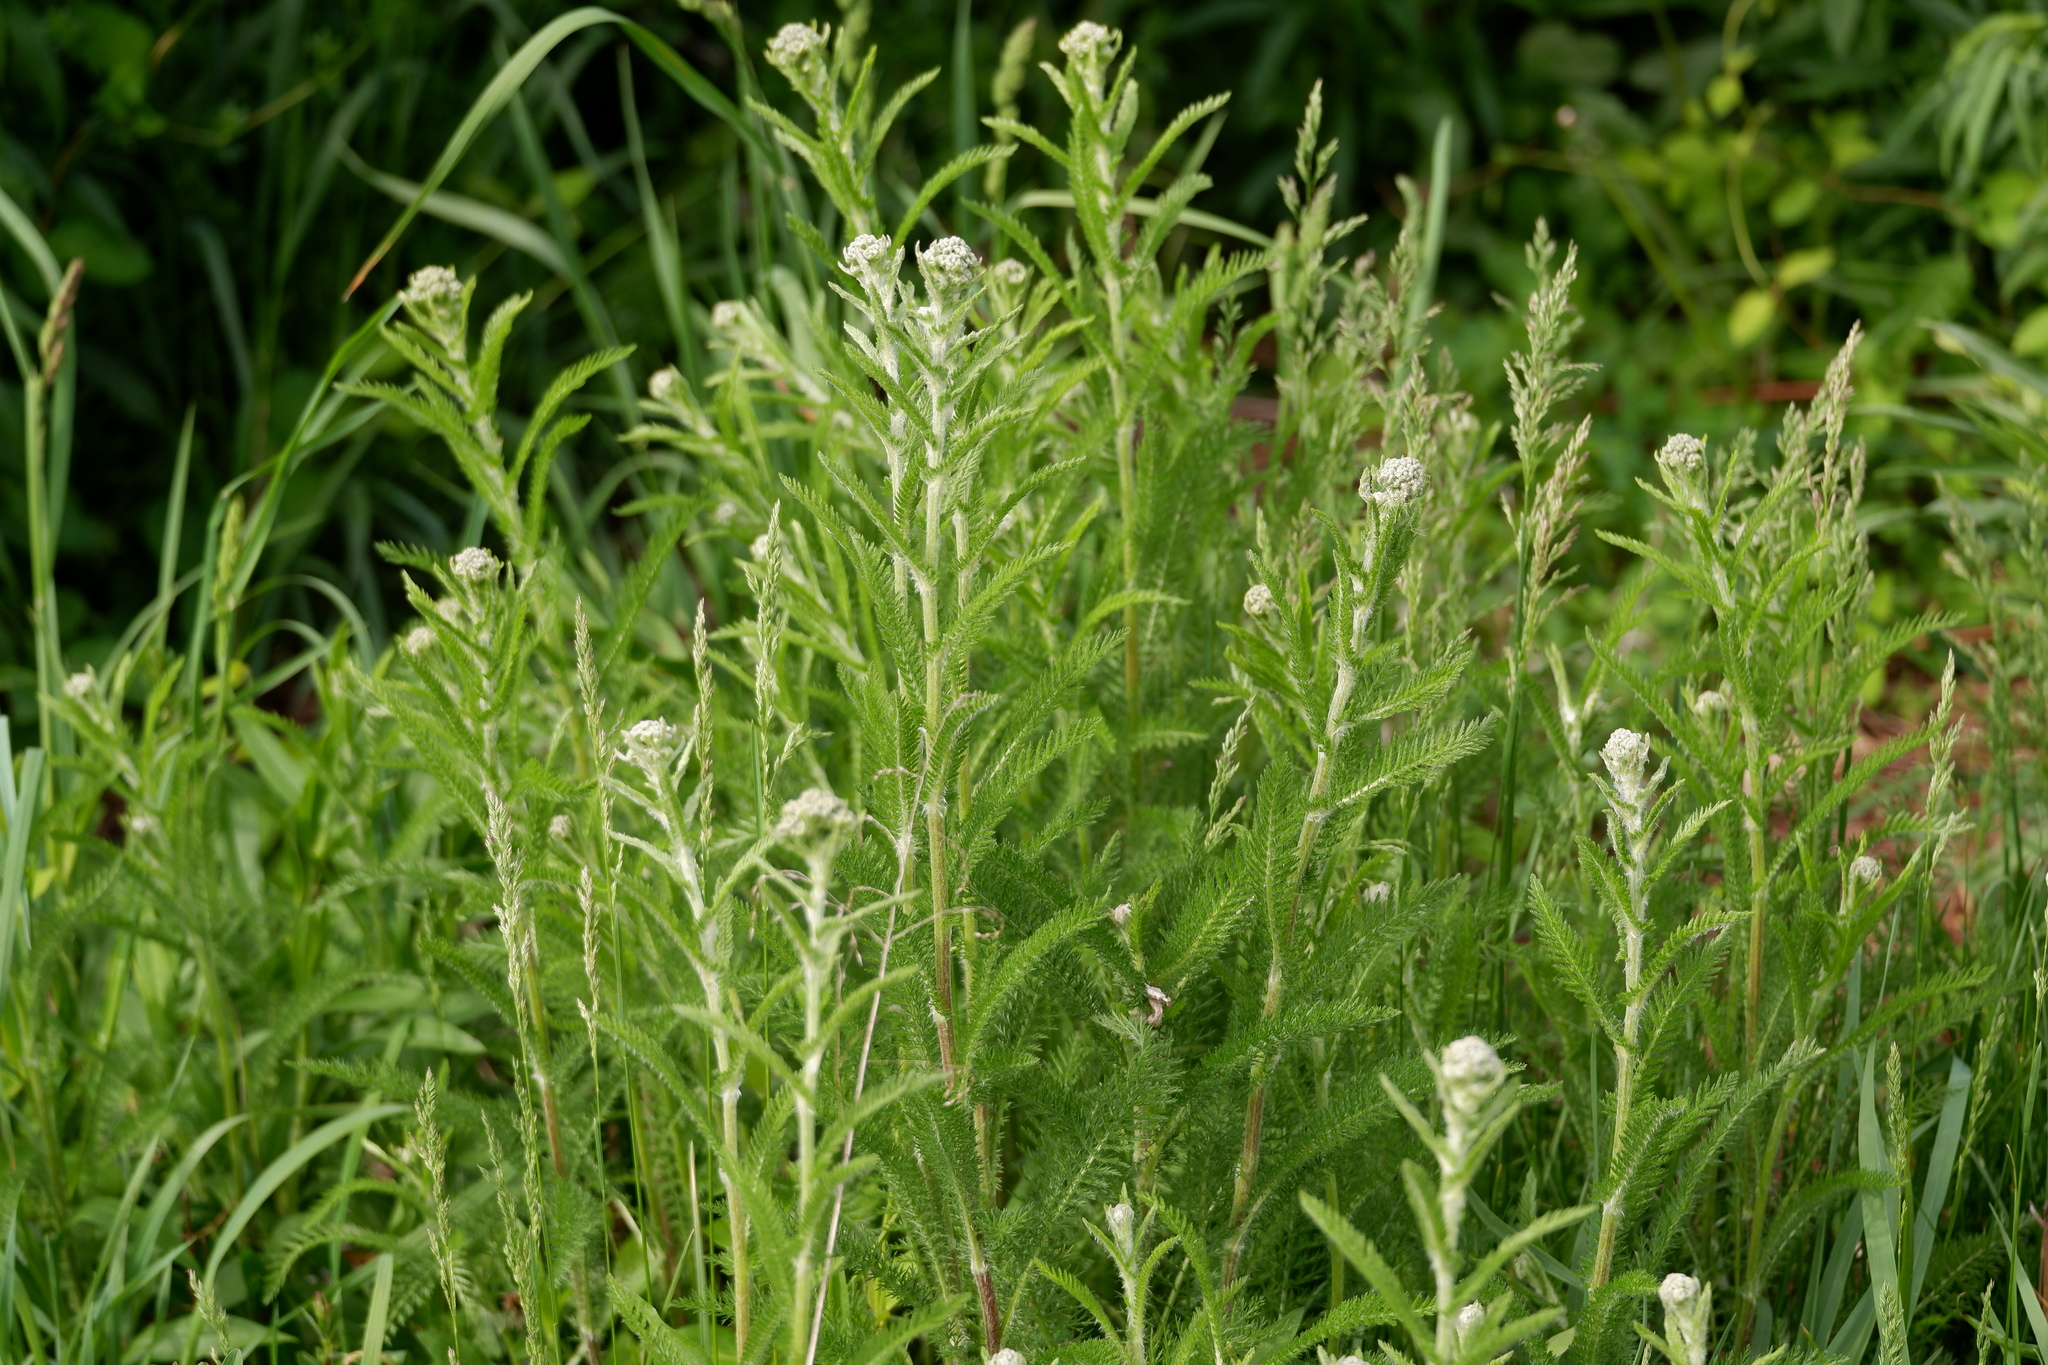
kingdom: Plantae
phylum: Tracheophyta
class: Magnoliopsida
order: Asterales
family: Asteraceae
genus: Achillea
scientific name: Achillea millefolium
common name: Yarrow
